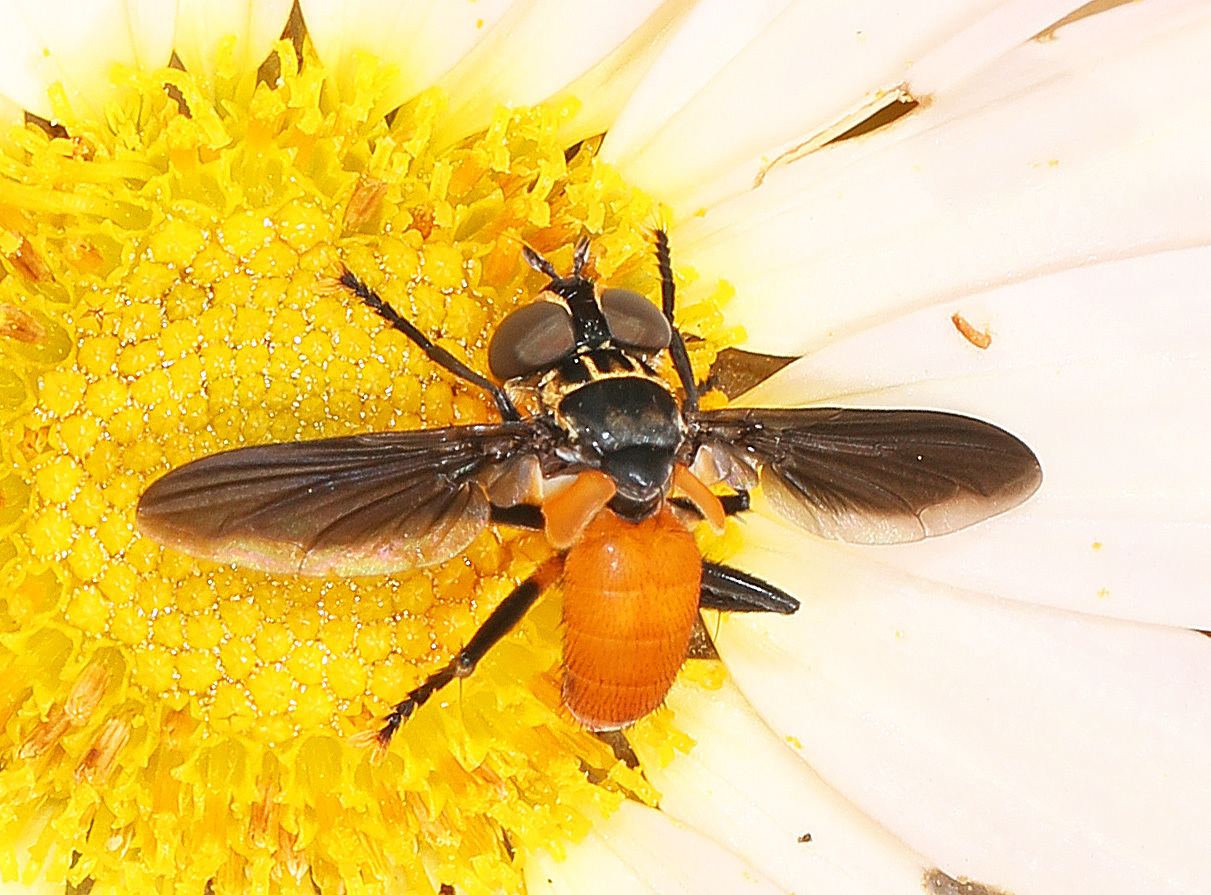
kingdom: Animalia
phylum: Arthropoda
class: Insecta
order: Diptera
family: Tachinidae
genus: Trichopoda
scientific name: Trichopoda pennipes
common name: Tachinid fly
